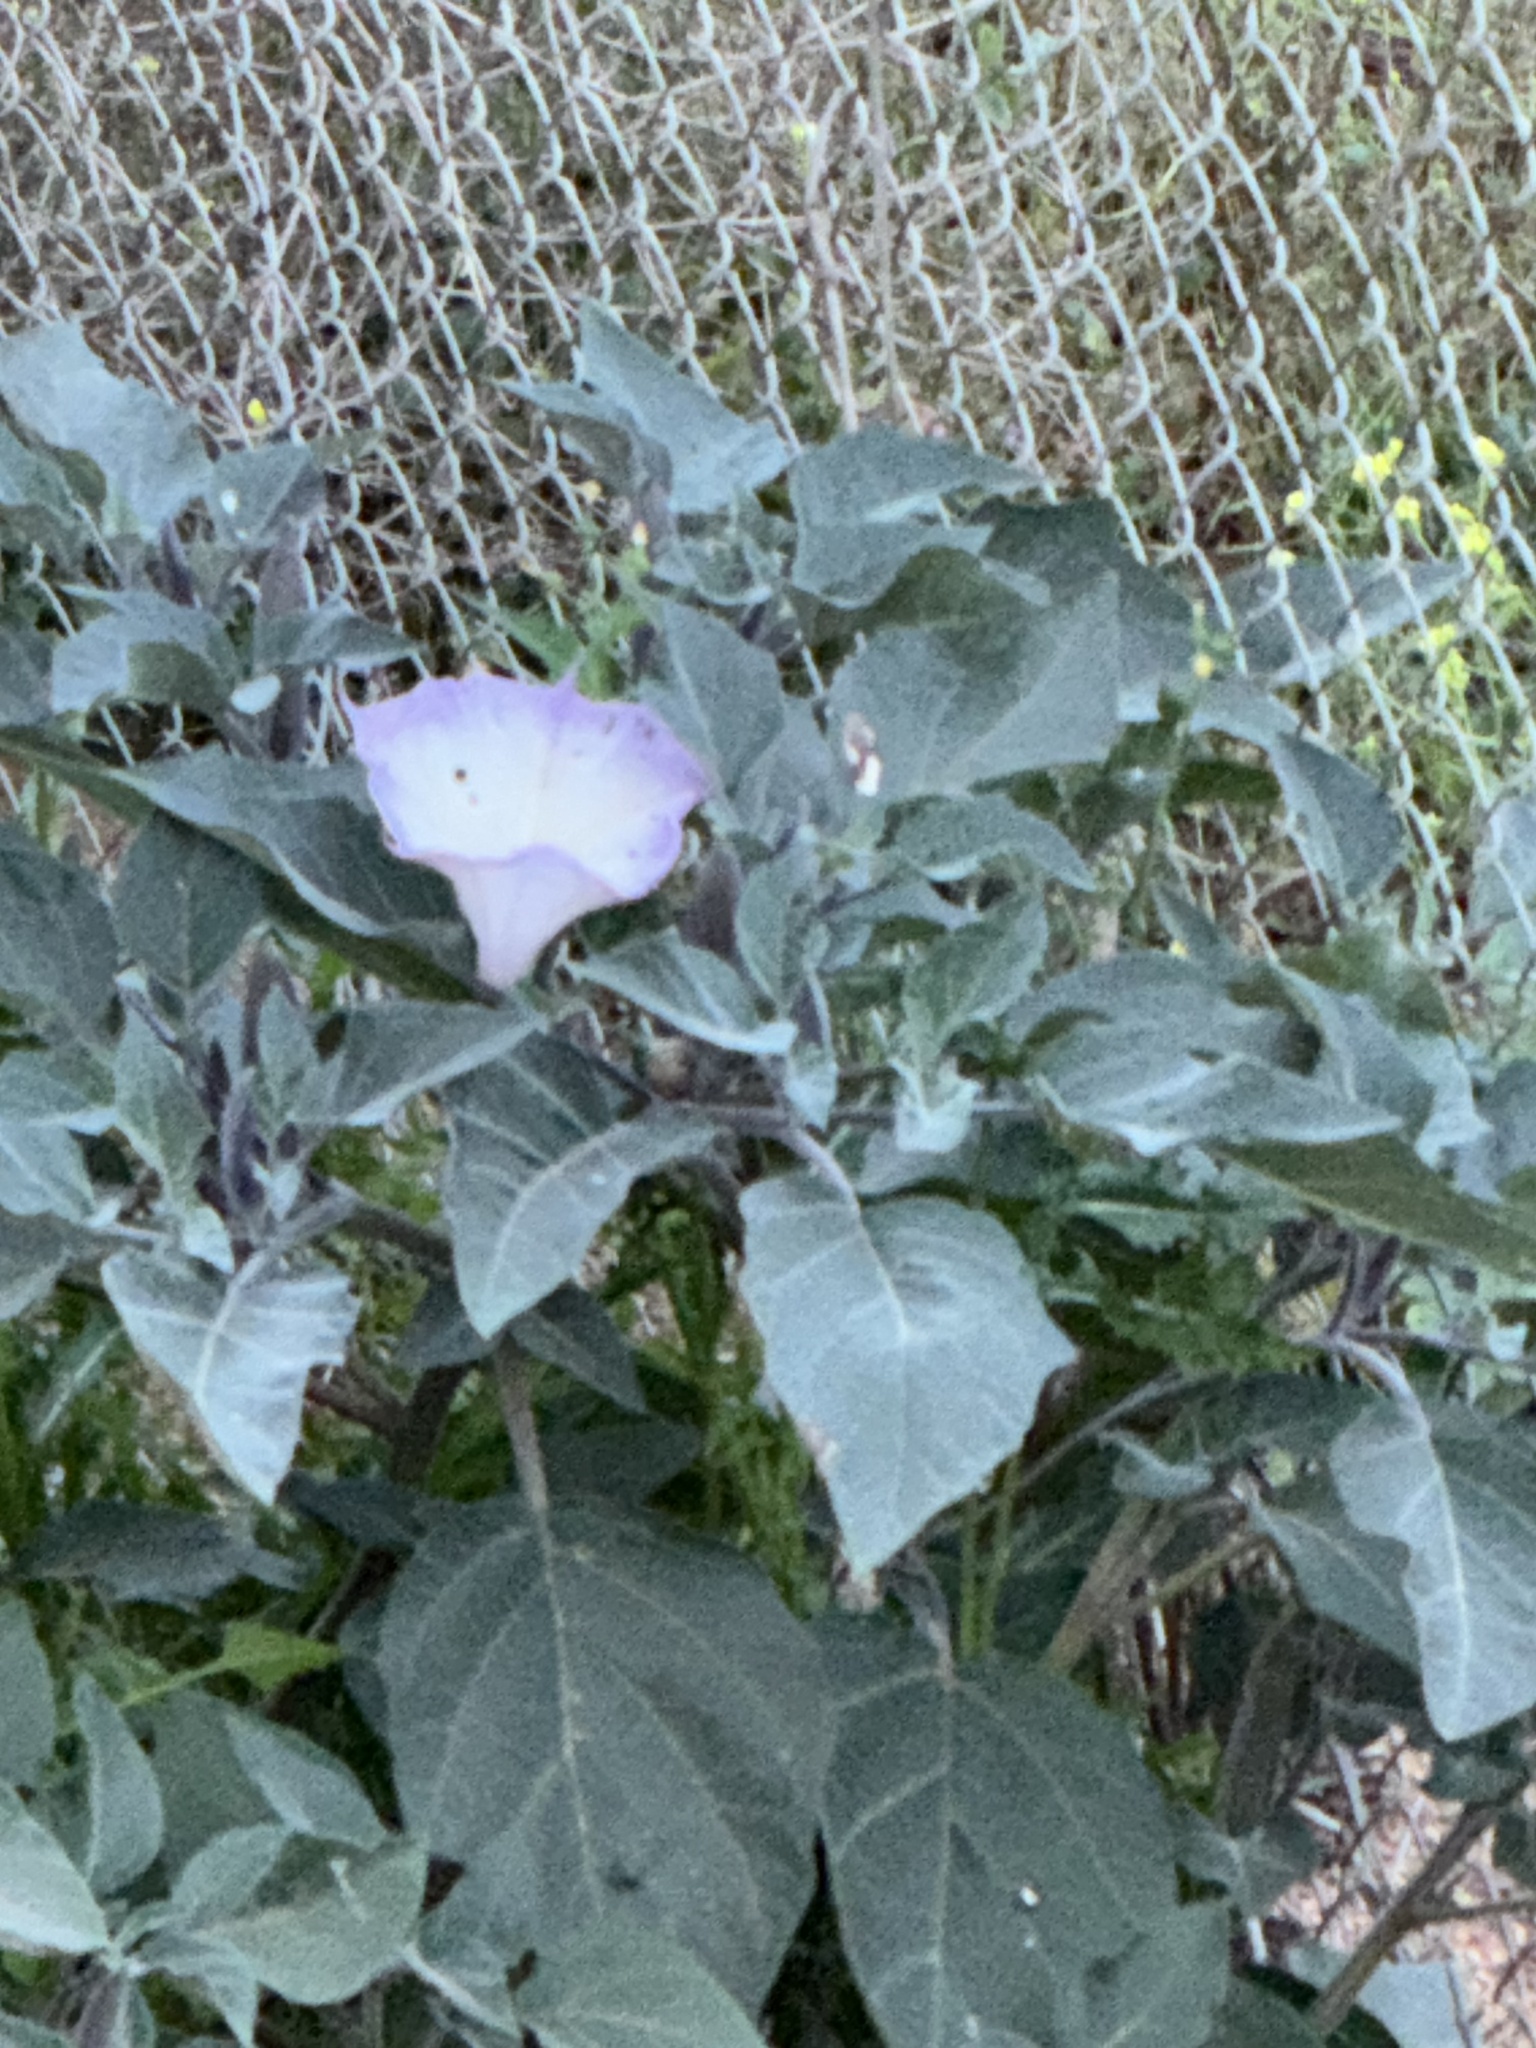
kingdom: Plantae
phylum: Tracheophyta
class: Magnoliopsida
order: Solanales
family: Solanaceae
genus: Datura
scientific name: Datura wrightii
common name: Sacred thorn-apple
